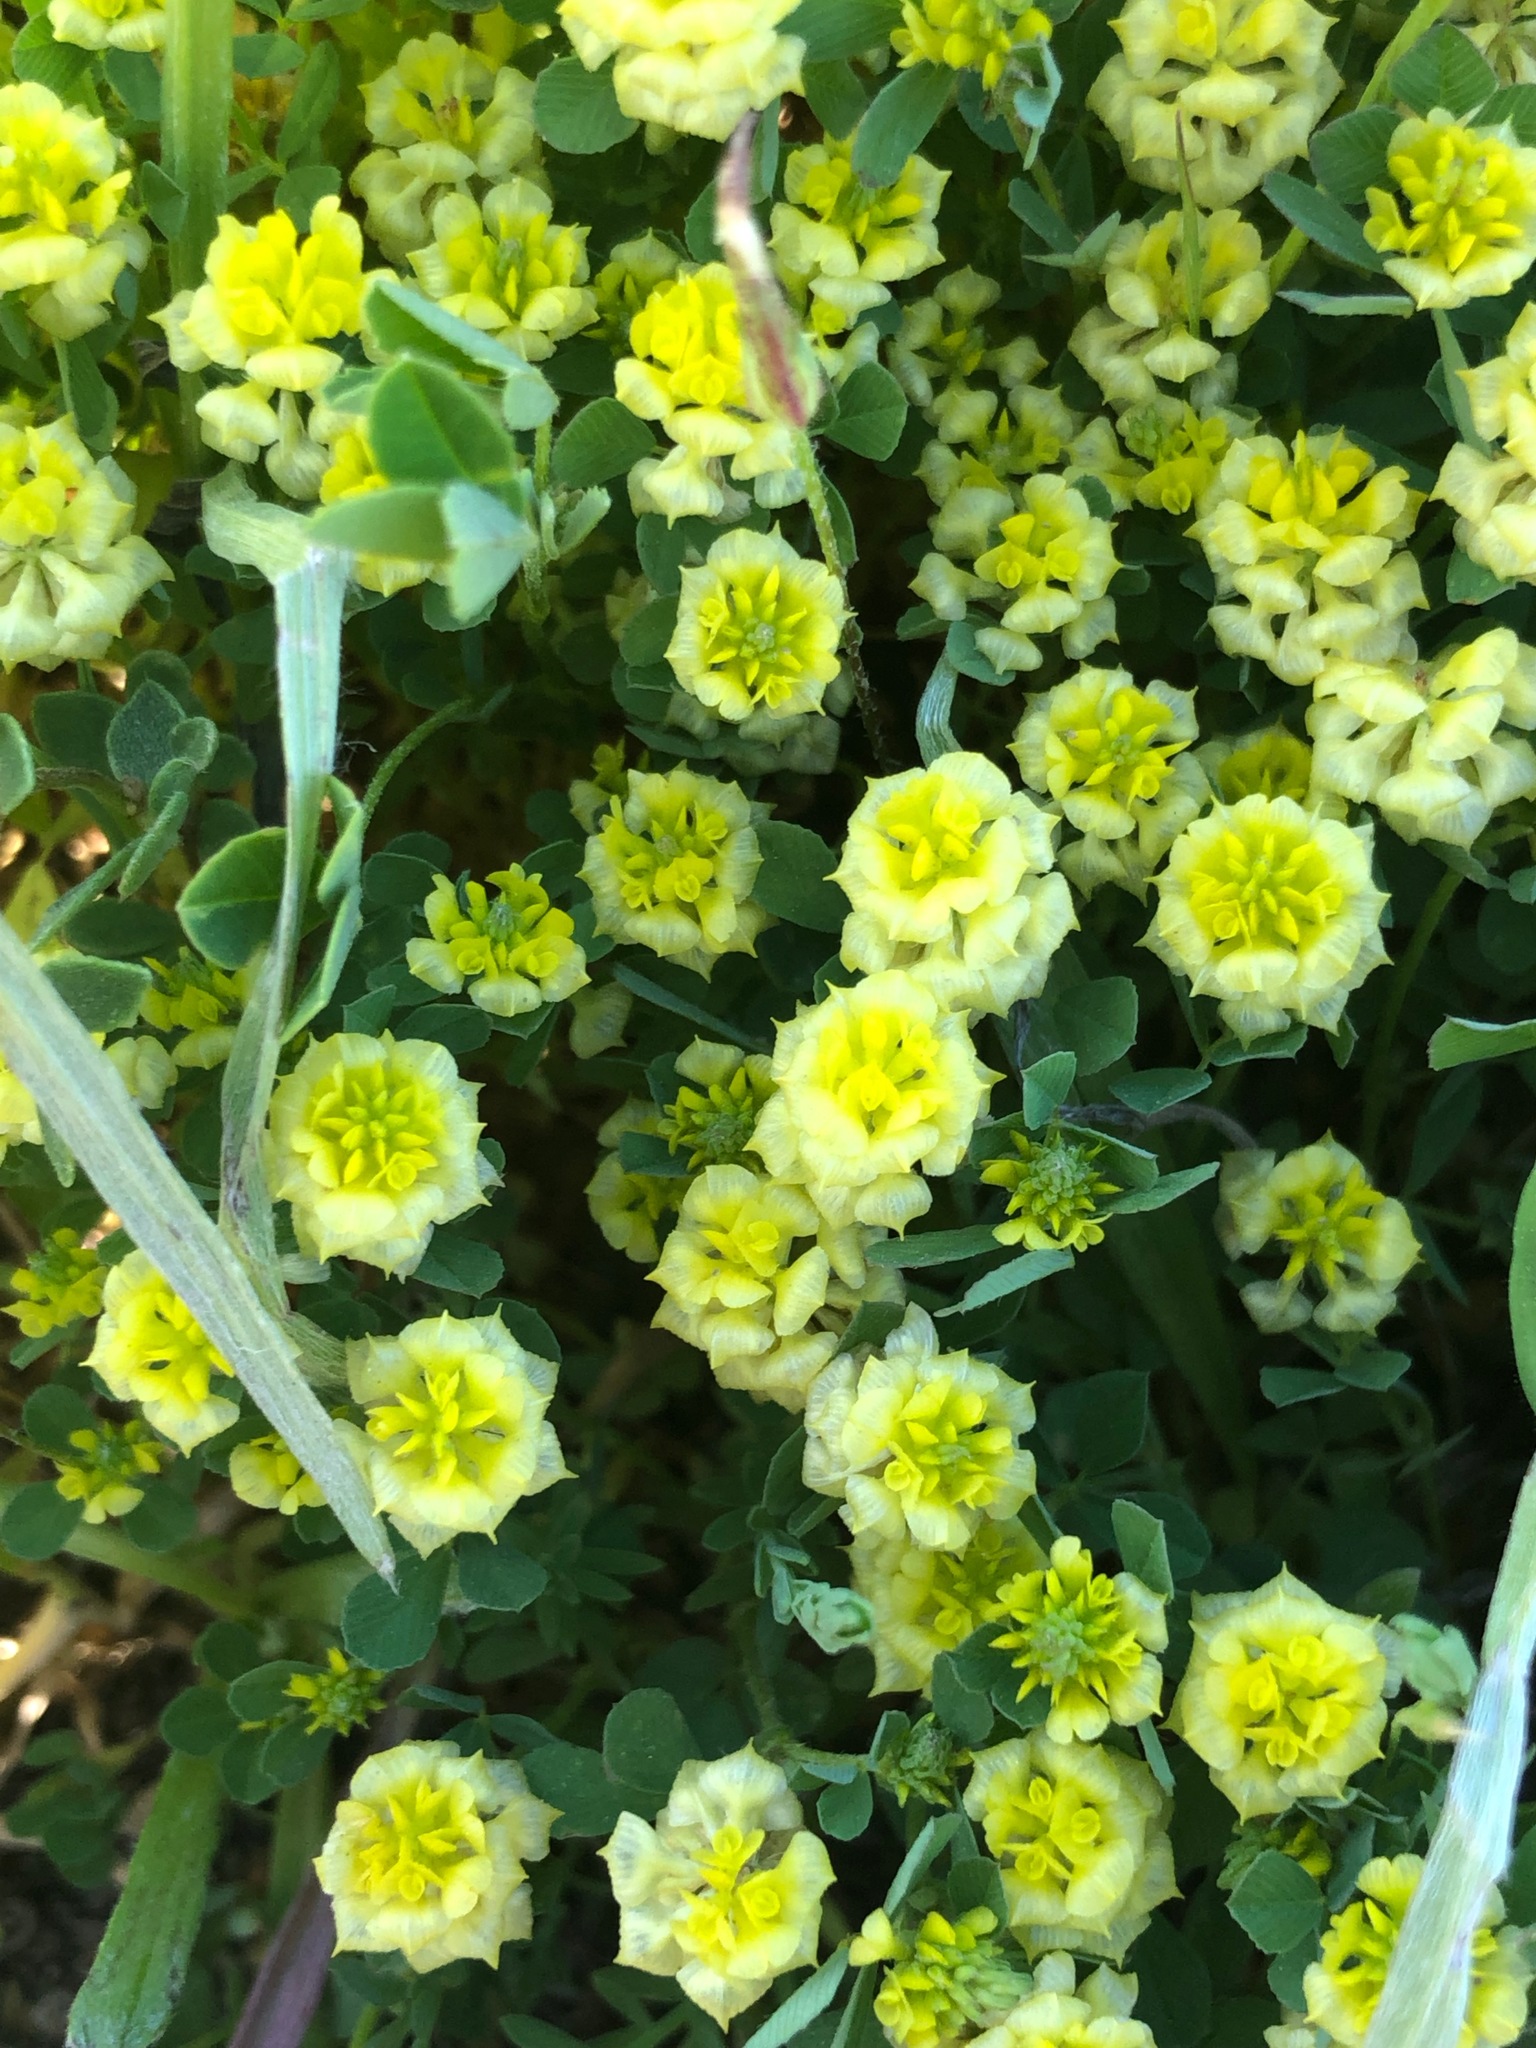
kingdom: Plantae
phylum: Tracheophyta
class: Magnoliopsida
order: Fabales
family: Fabaceae
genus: Trifolium
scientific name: Trifolium campestre
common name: Field clover
